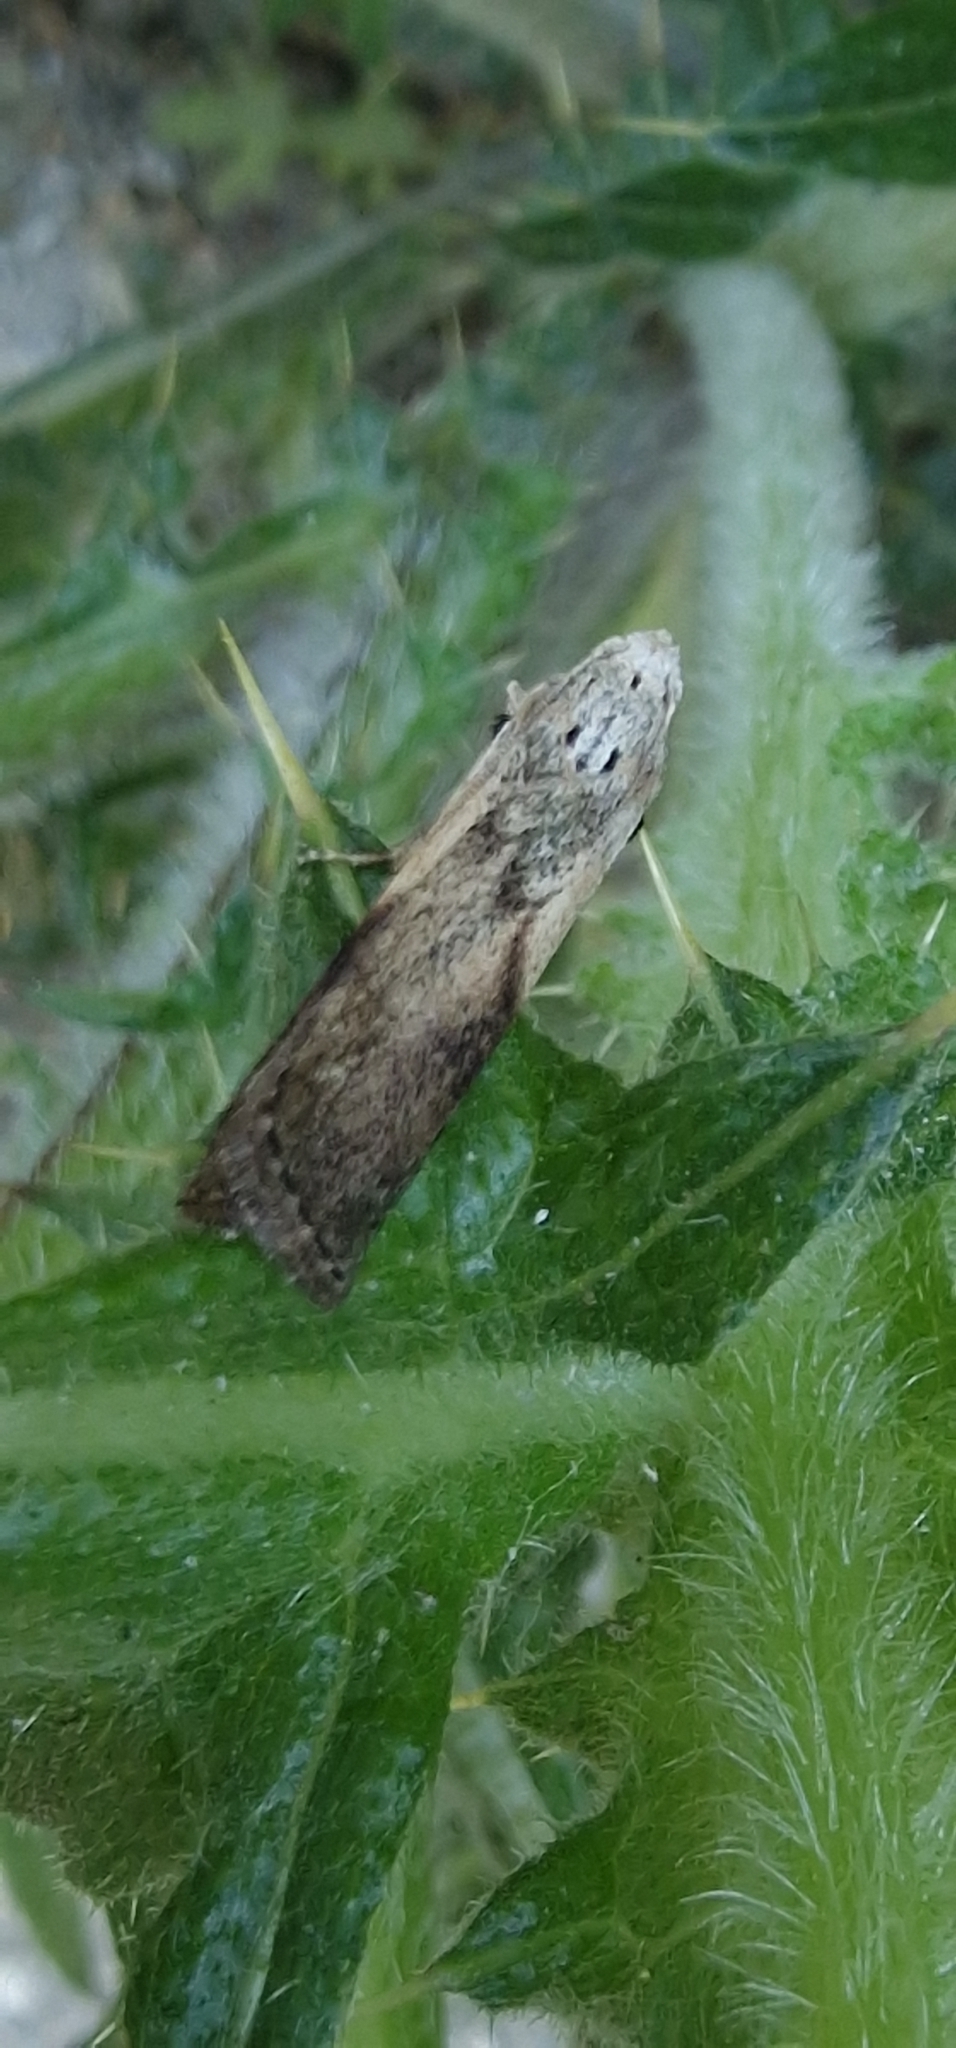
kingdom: Animalia
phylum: Arthropoda
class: Insecta
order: Lepidoptera
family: Pyralidae
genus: Aphomia
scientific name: Aphomia sociella
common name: Bee moth
